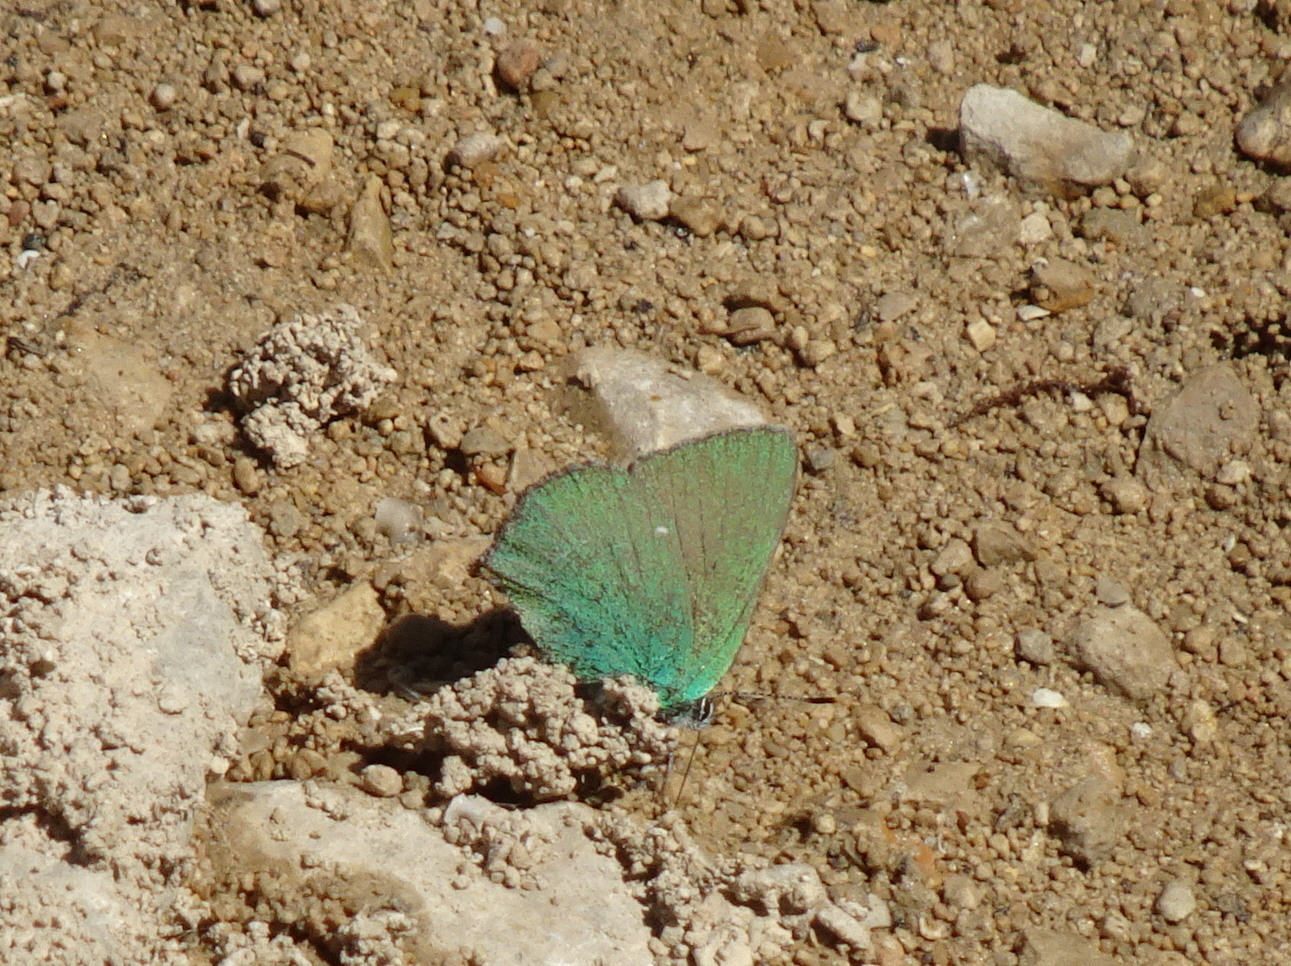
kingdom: Animalia
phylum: Arthropoda
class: Insecta
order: Lepidoptera
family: Lycaenidae
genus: Callophrys
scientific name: Callophrys rubi
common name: Green hairstreak
